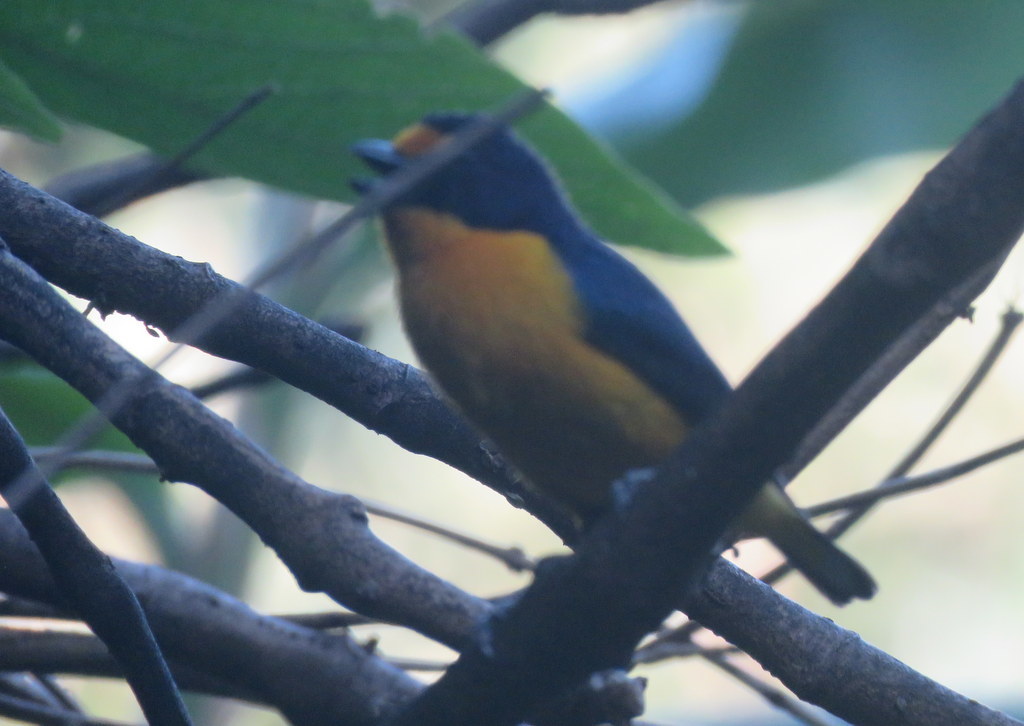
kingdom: Animalia
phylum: Chordata
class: Aves
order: Passeriformes
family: Fringillidae
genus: Euphonia
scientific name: Euphonia violacea
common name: Violaceous euphonia
